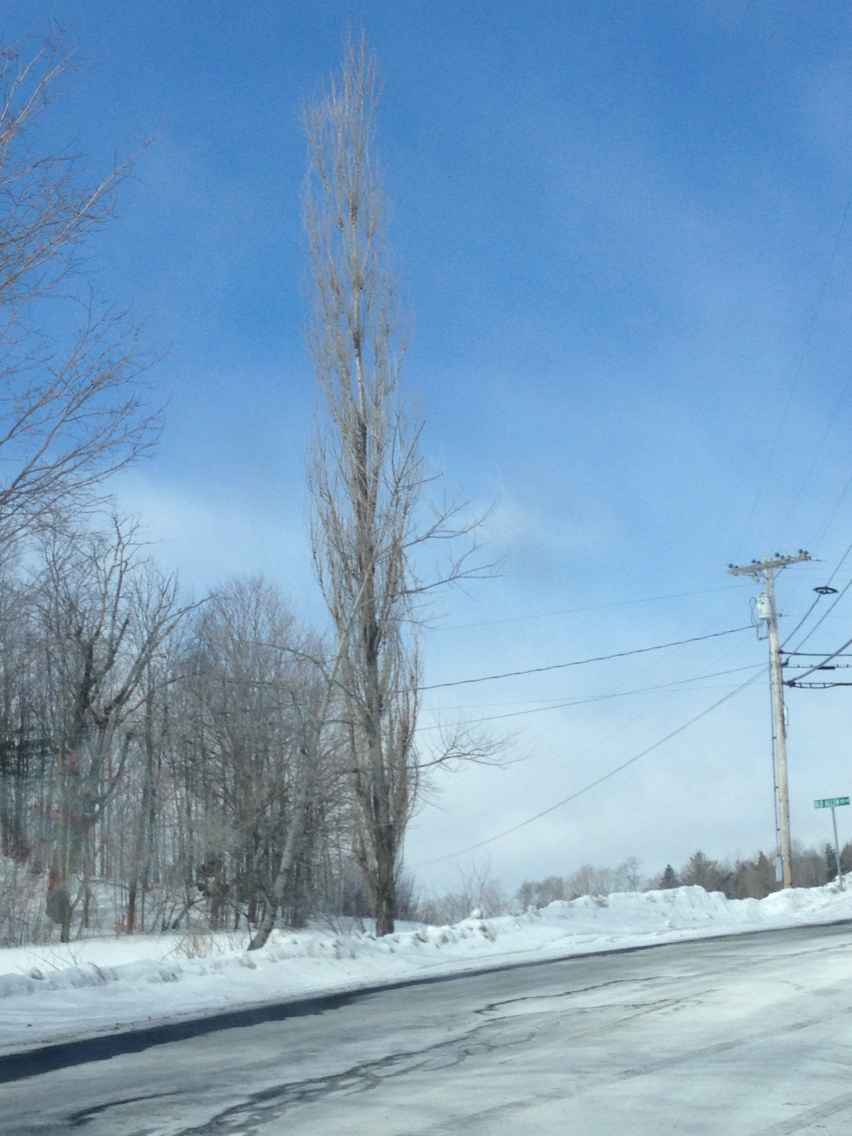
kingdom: Plantae
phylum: Tracheophyta
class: Magnoliopsida
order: Malpighiales
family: Salicaceae
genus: Populus
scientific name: Populus nigra
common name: Black poplar
